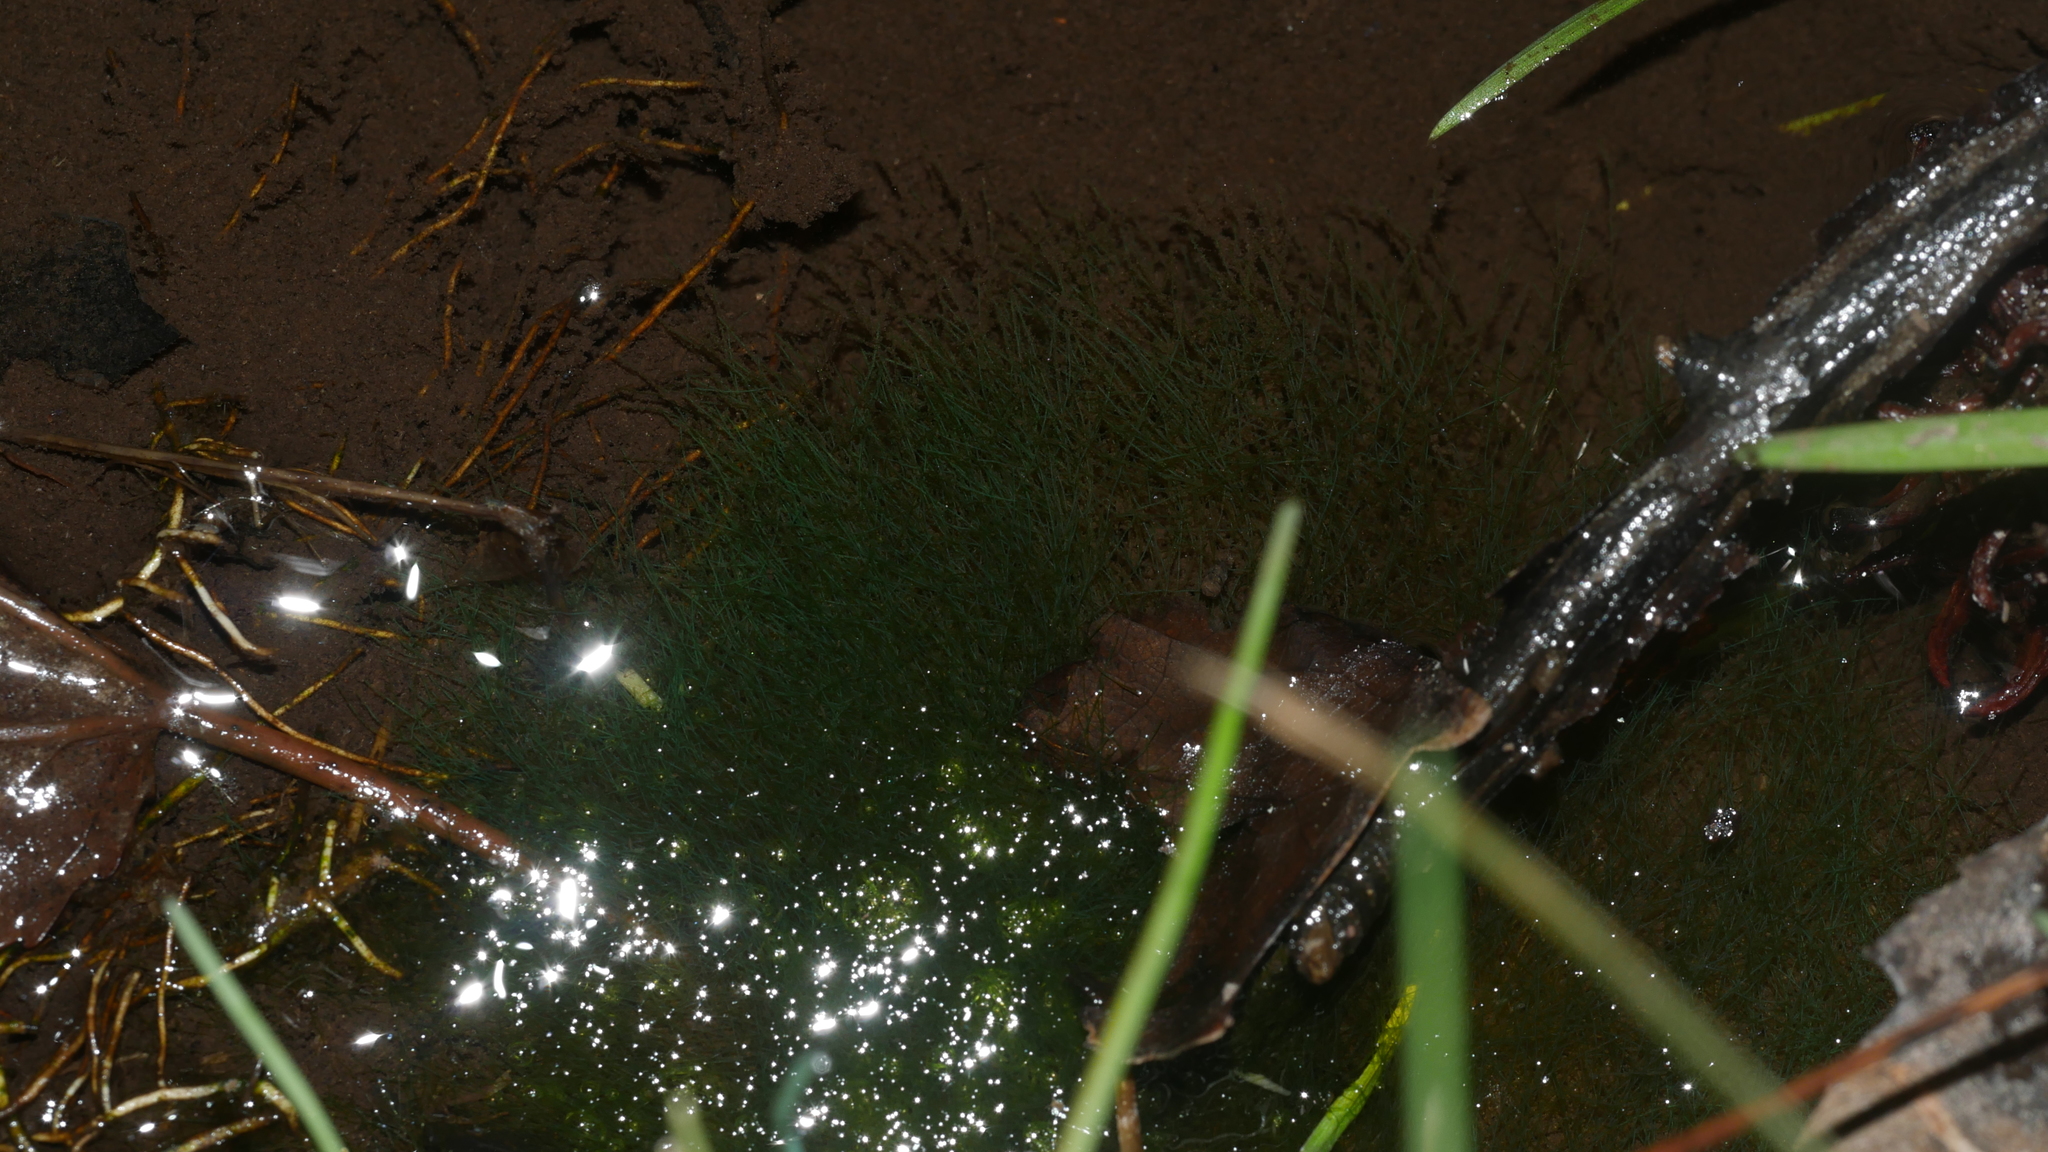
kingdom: Chromista
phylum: Ochrophyta
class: Xanthophyceae
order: Vaucheriales
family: Vaucheriaceae
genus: Vaucheria
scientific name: Vaucheria
